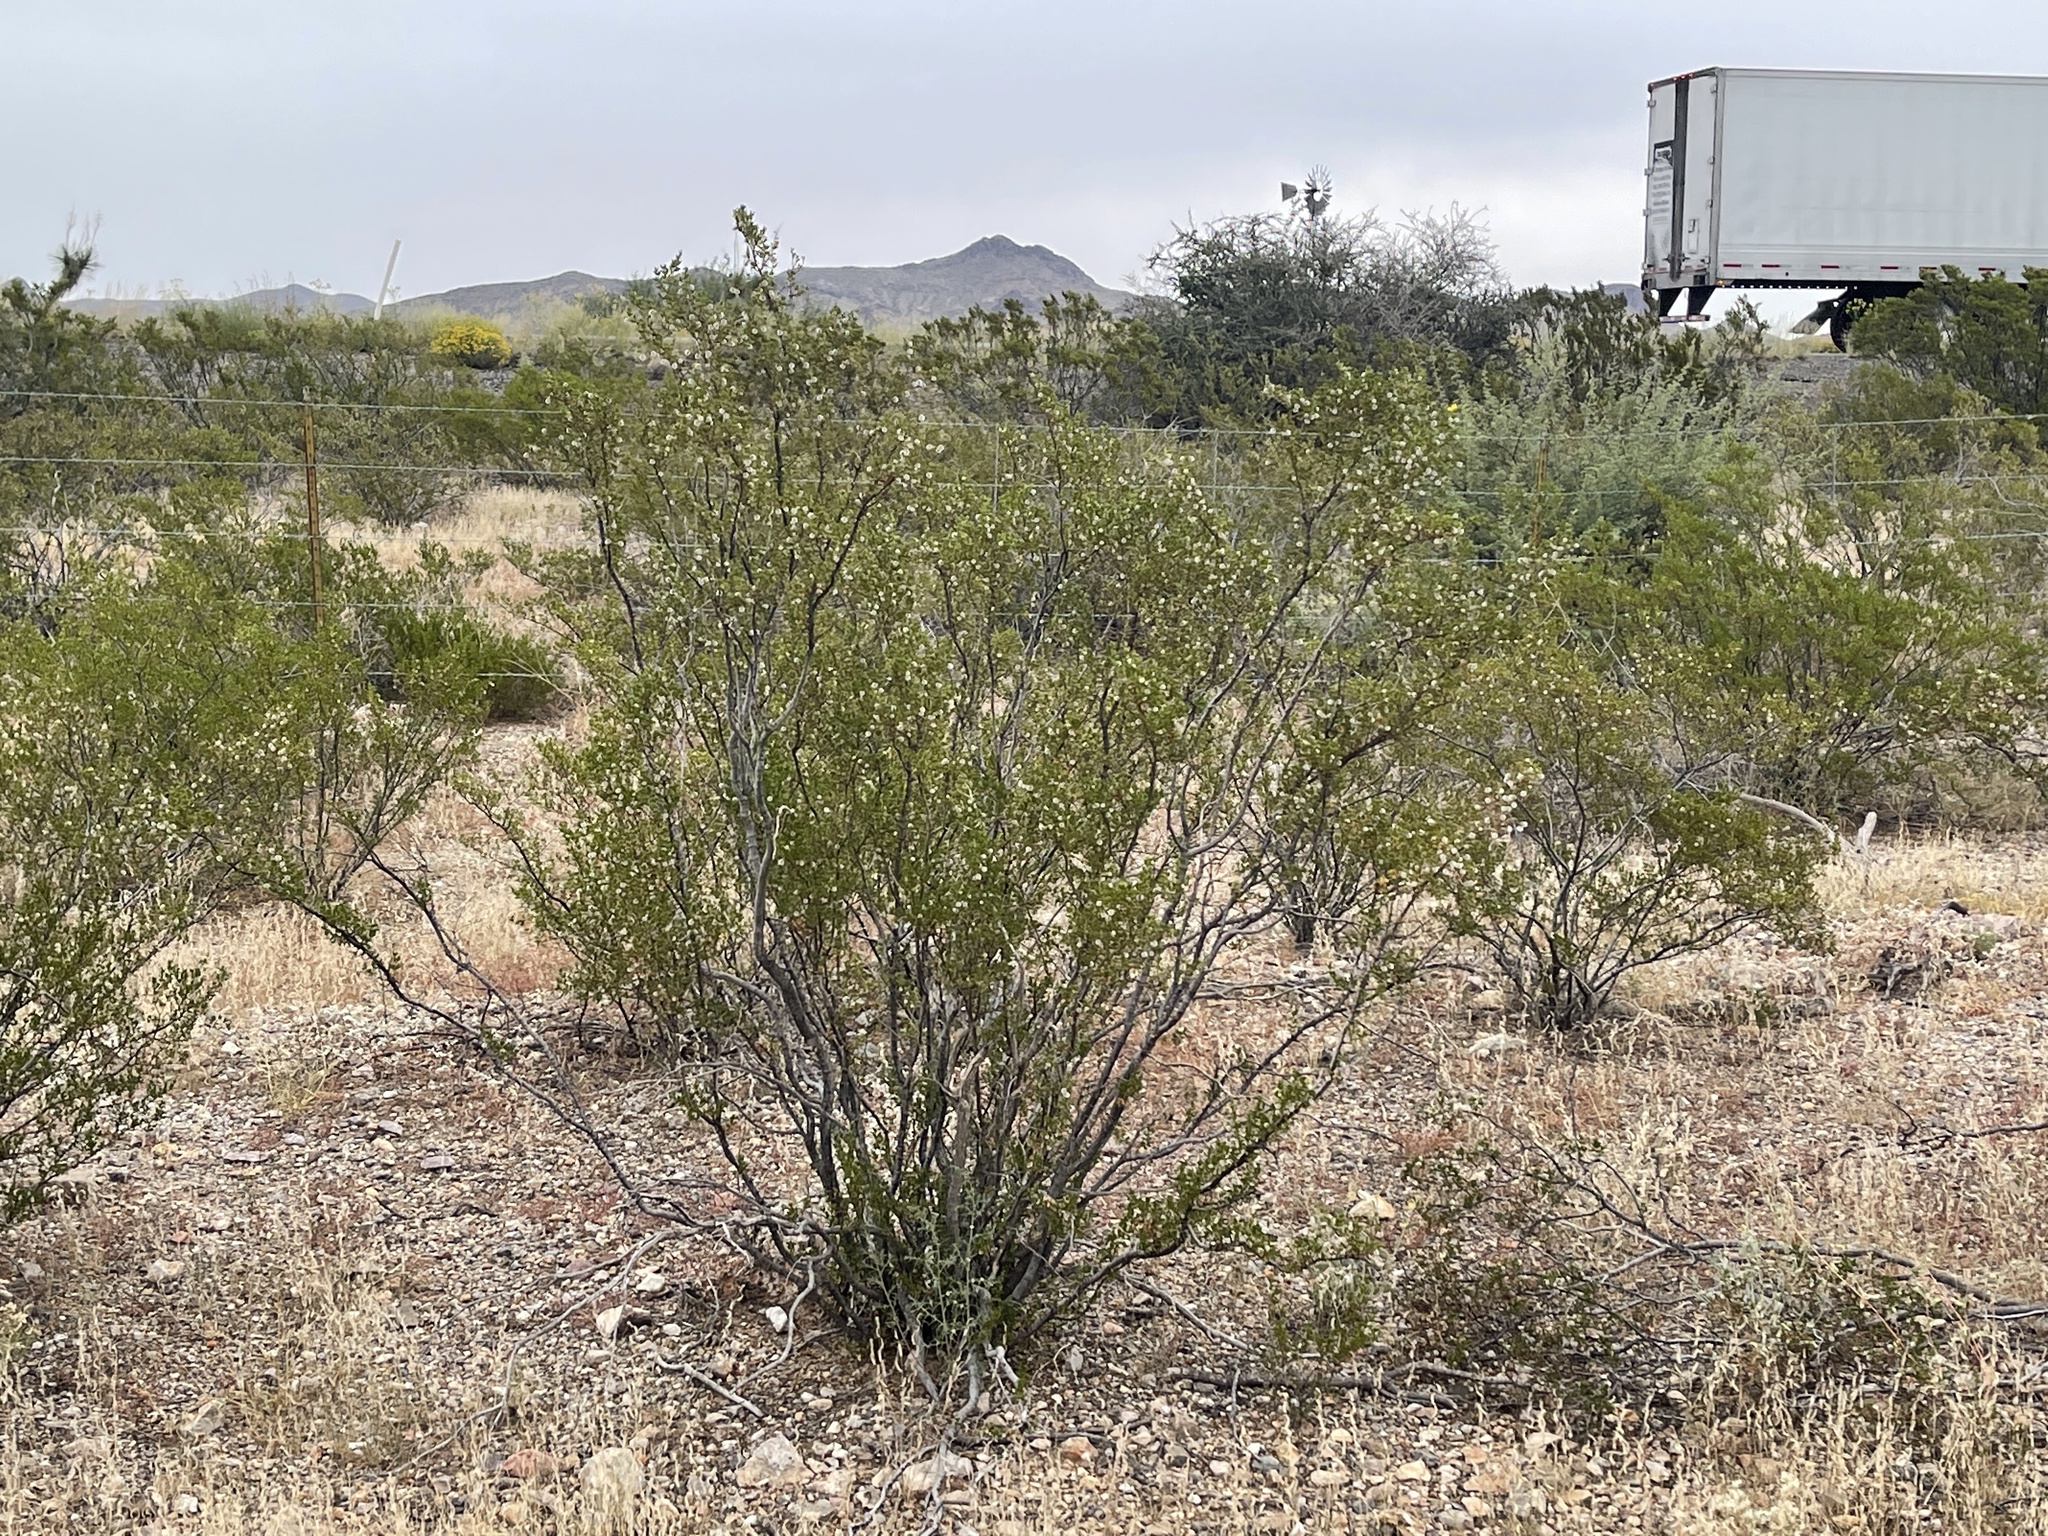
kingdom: Plantae
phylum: Tracheophyta
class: Magnoliopsida
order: Zygophyllales
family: Zygophyllaceae
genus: Larrea
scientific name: Larrea tridentata
